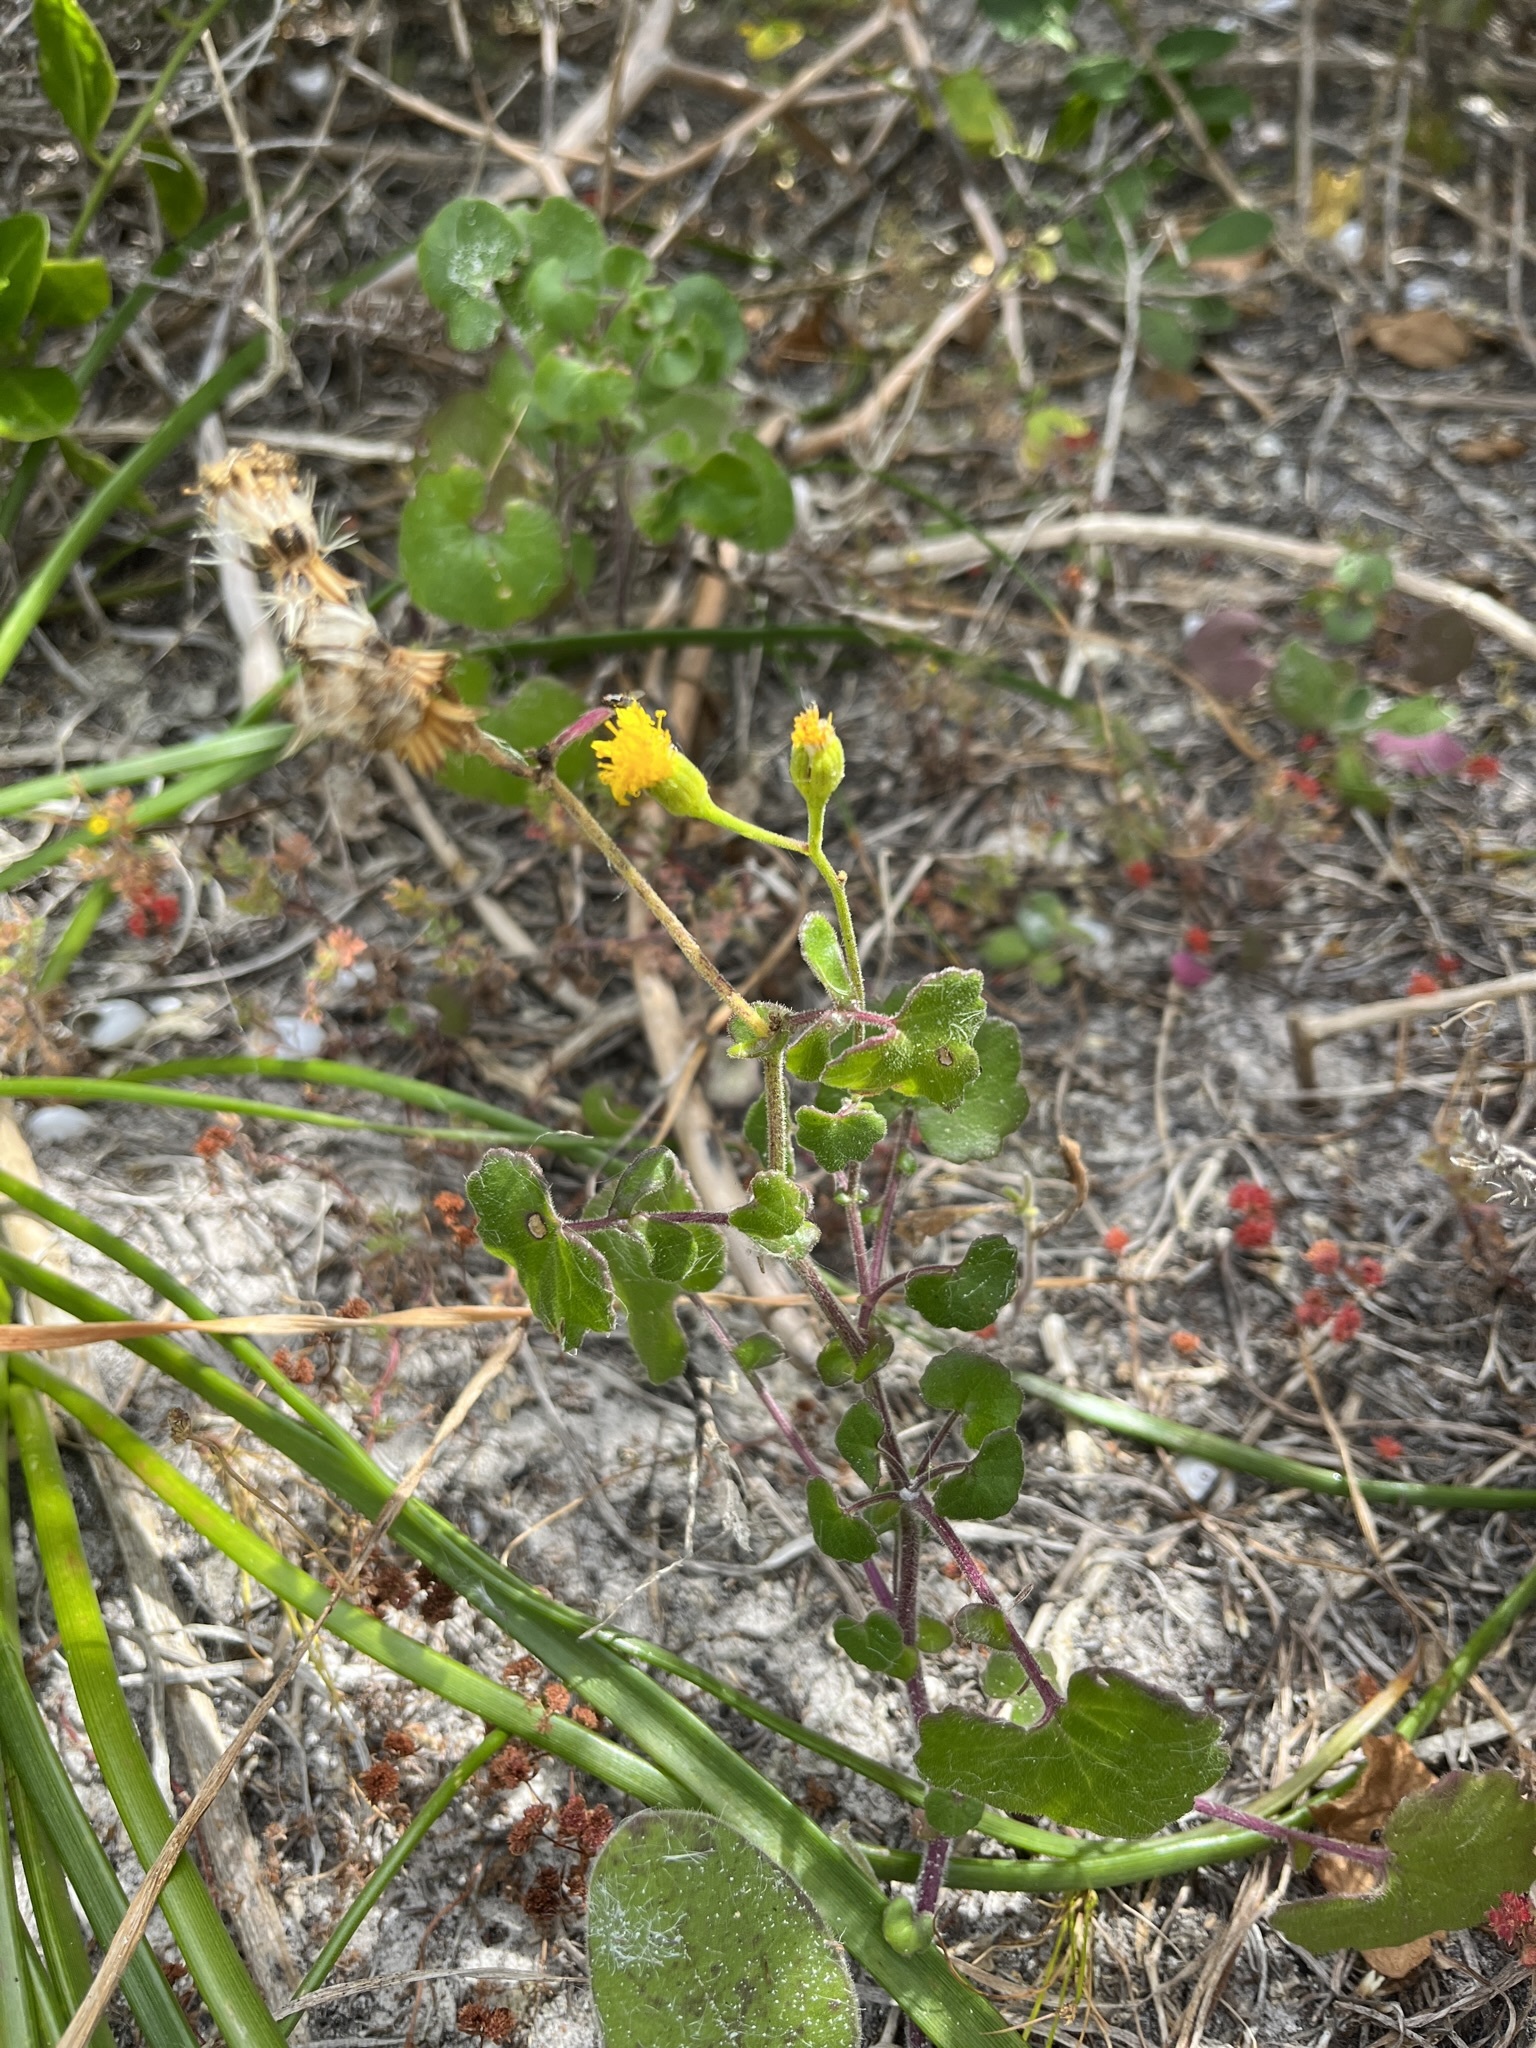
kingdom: Plantae
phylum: Tracheophyta
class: Magnoliopsida
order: Asterales
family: Asteraceae
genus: Cineraria
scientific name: Cineraria geifolia
